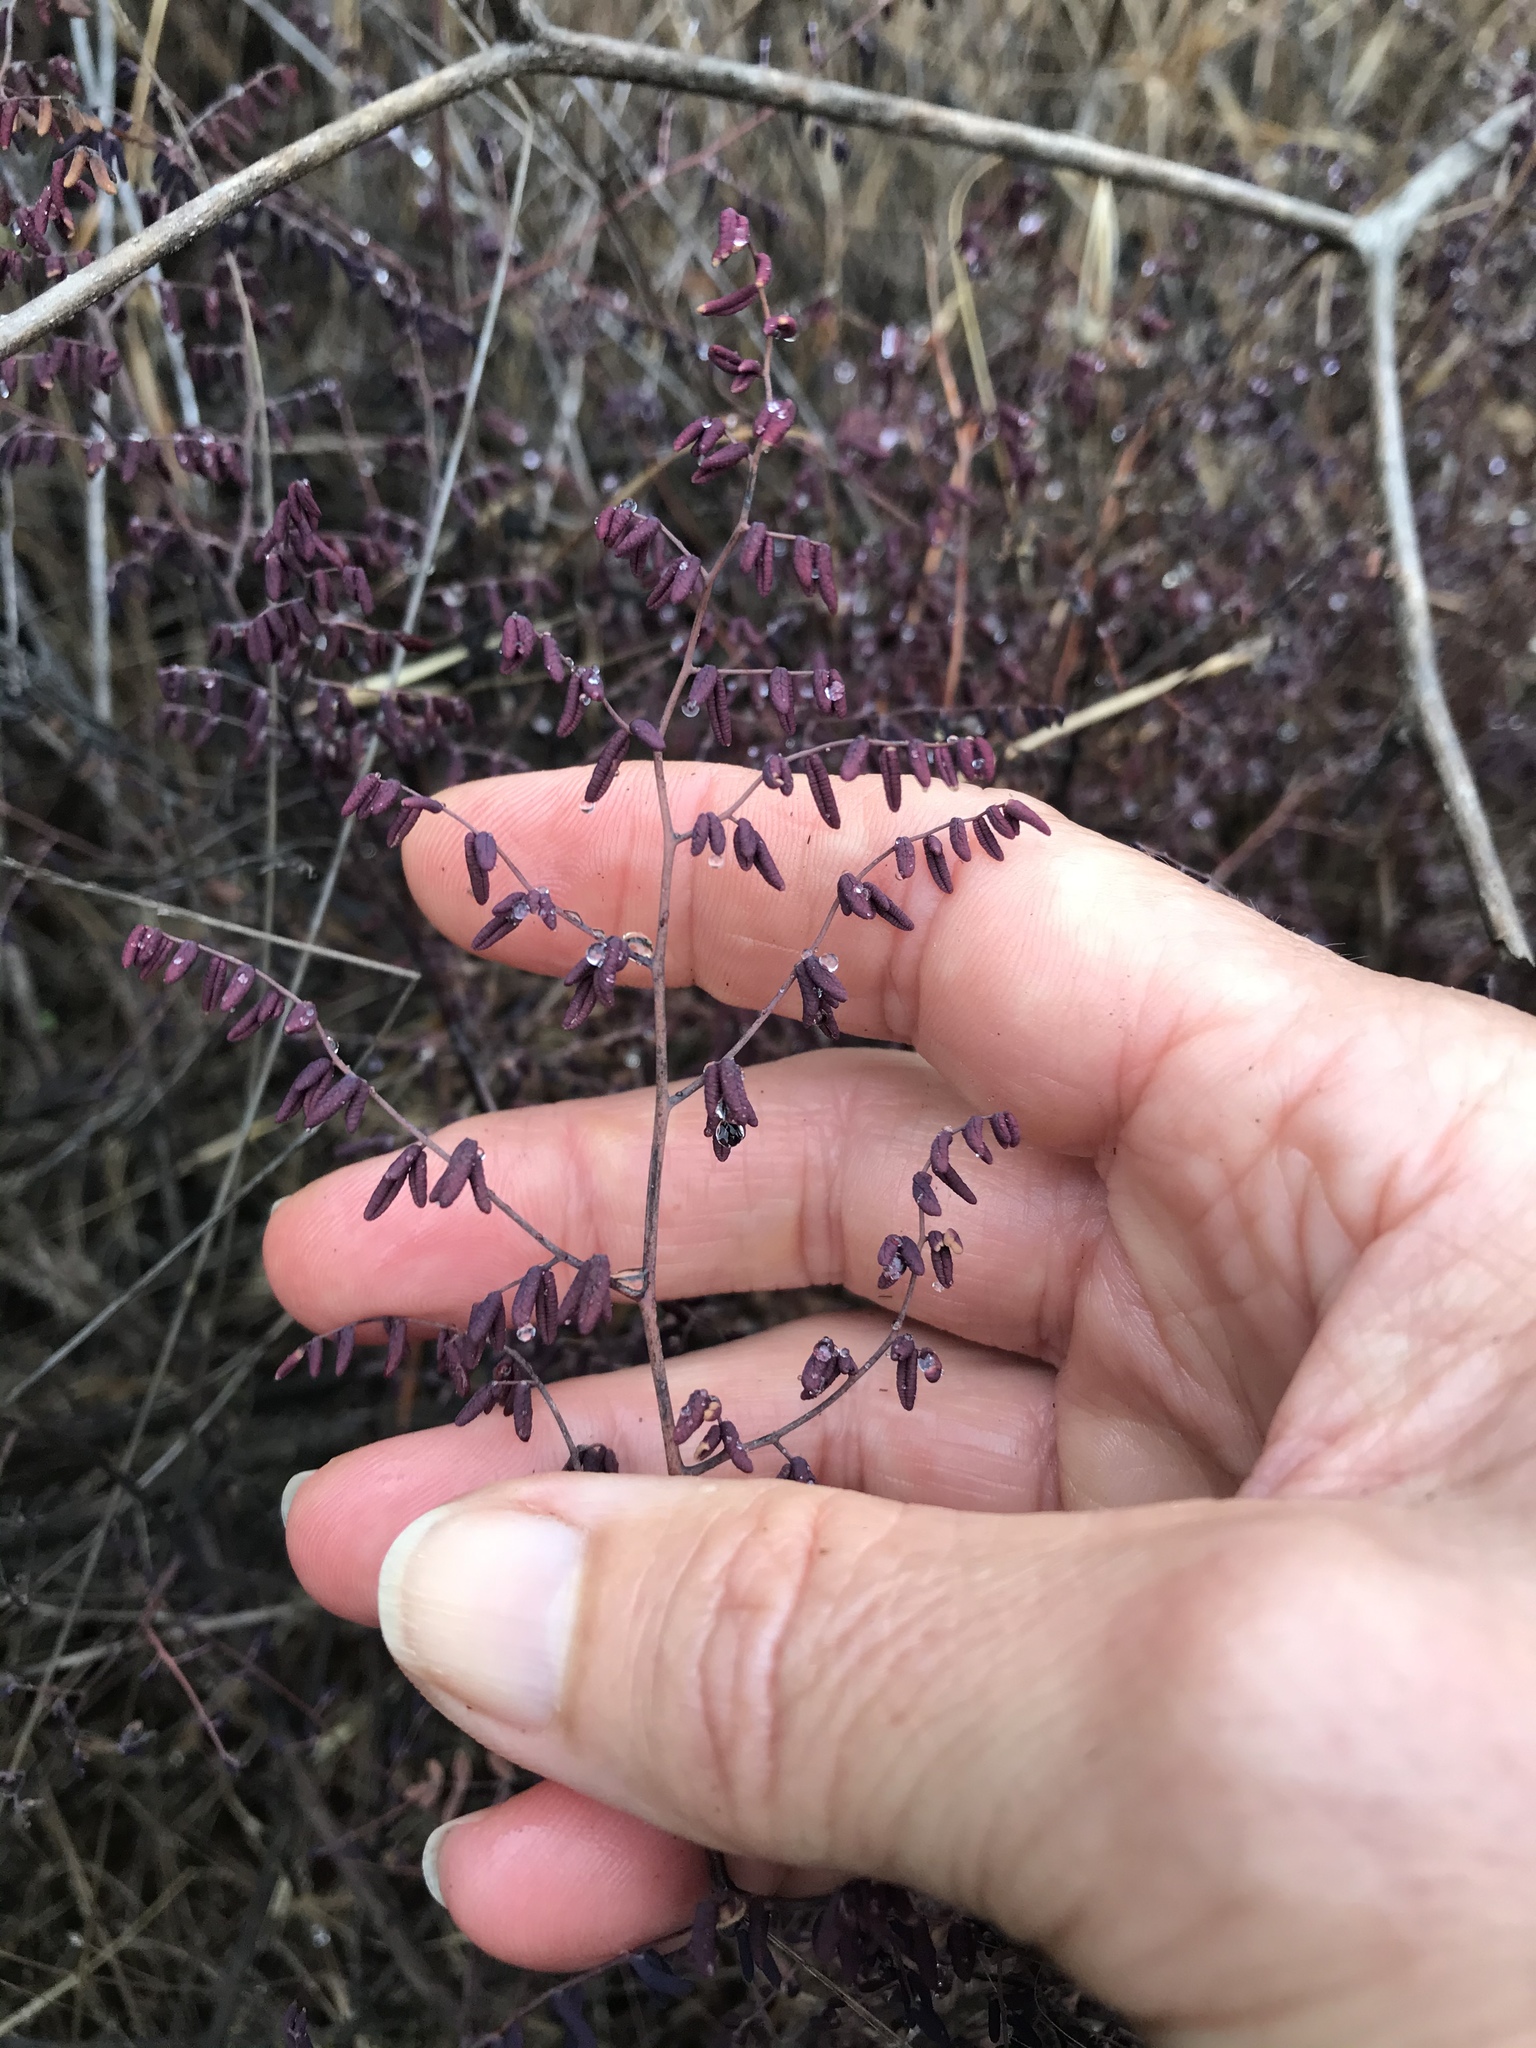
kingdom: Plantae
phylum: Tracheophyta
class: Polypodiopsida
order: Polypodiales
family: Pteridaceae
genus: Pellaea
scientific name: Pellaea andromedifolia
